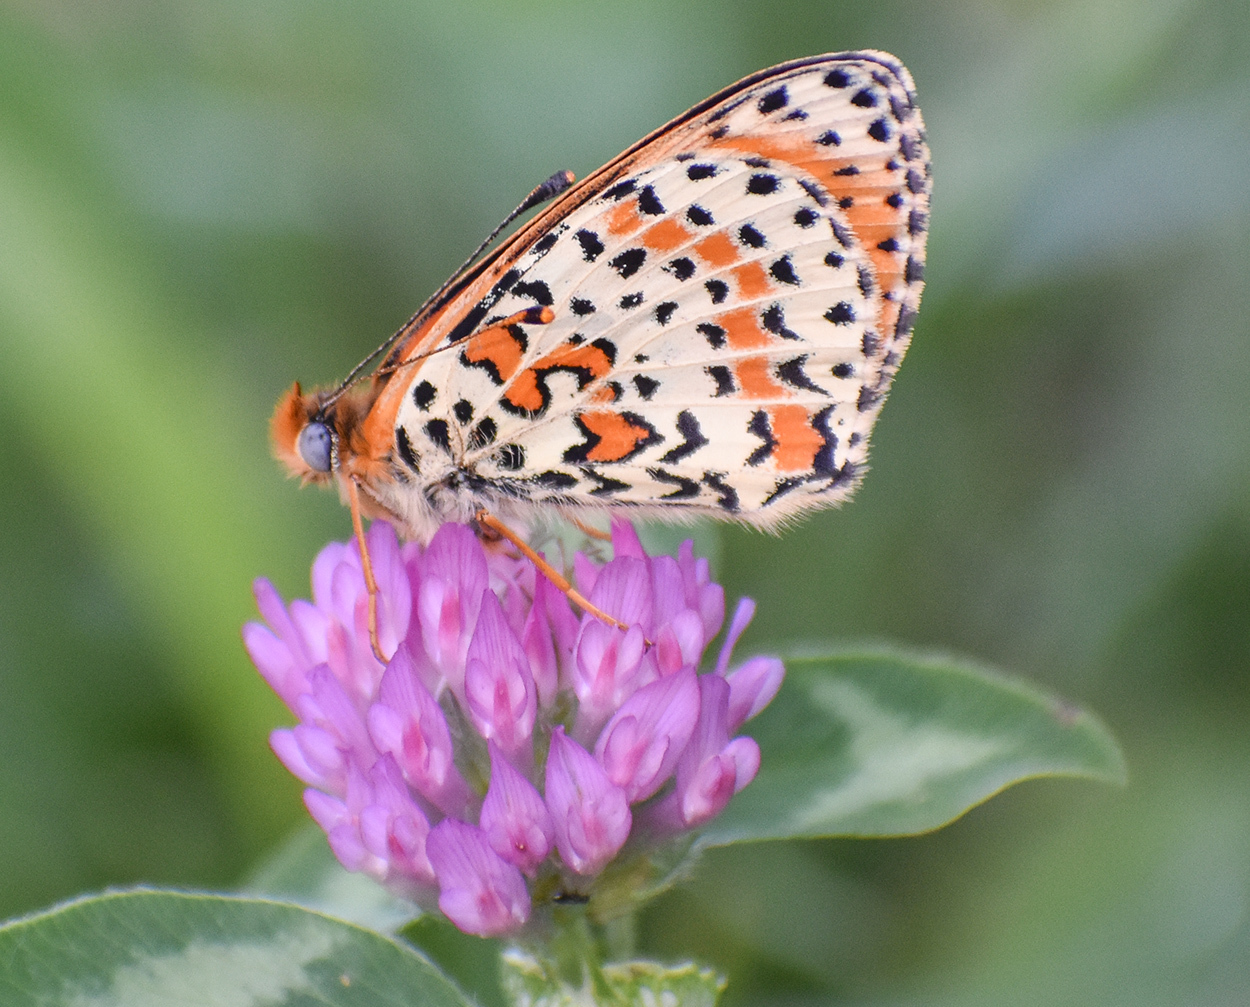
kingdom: Animalia
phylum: Arthropoda
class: Insecta
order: Lepidoptera
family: Nymphalidae
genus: Melitaea
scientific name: Melitaea didyma
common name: Spotted fritillary
